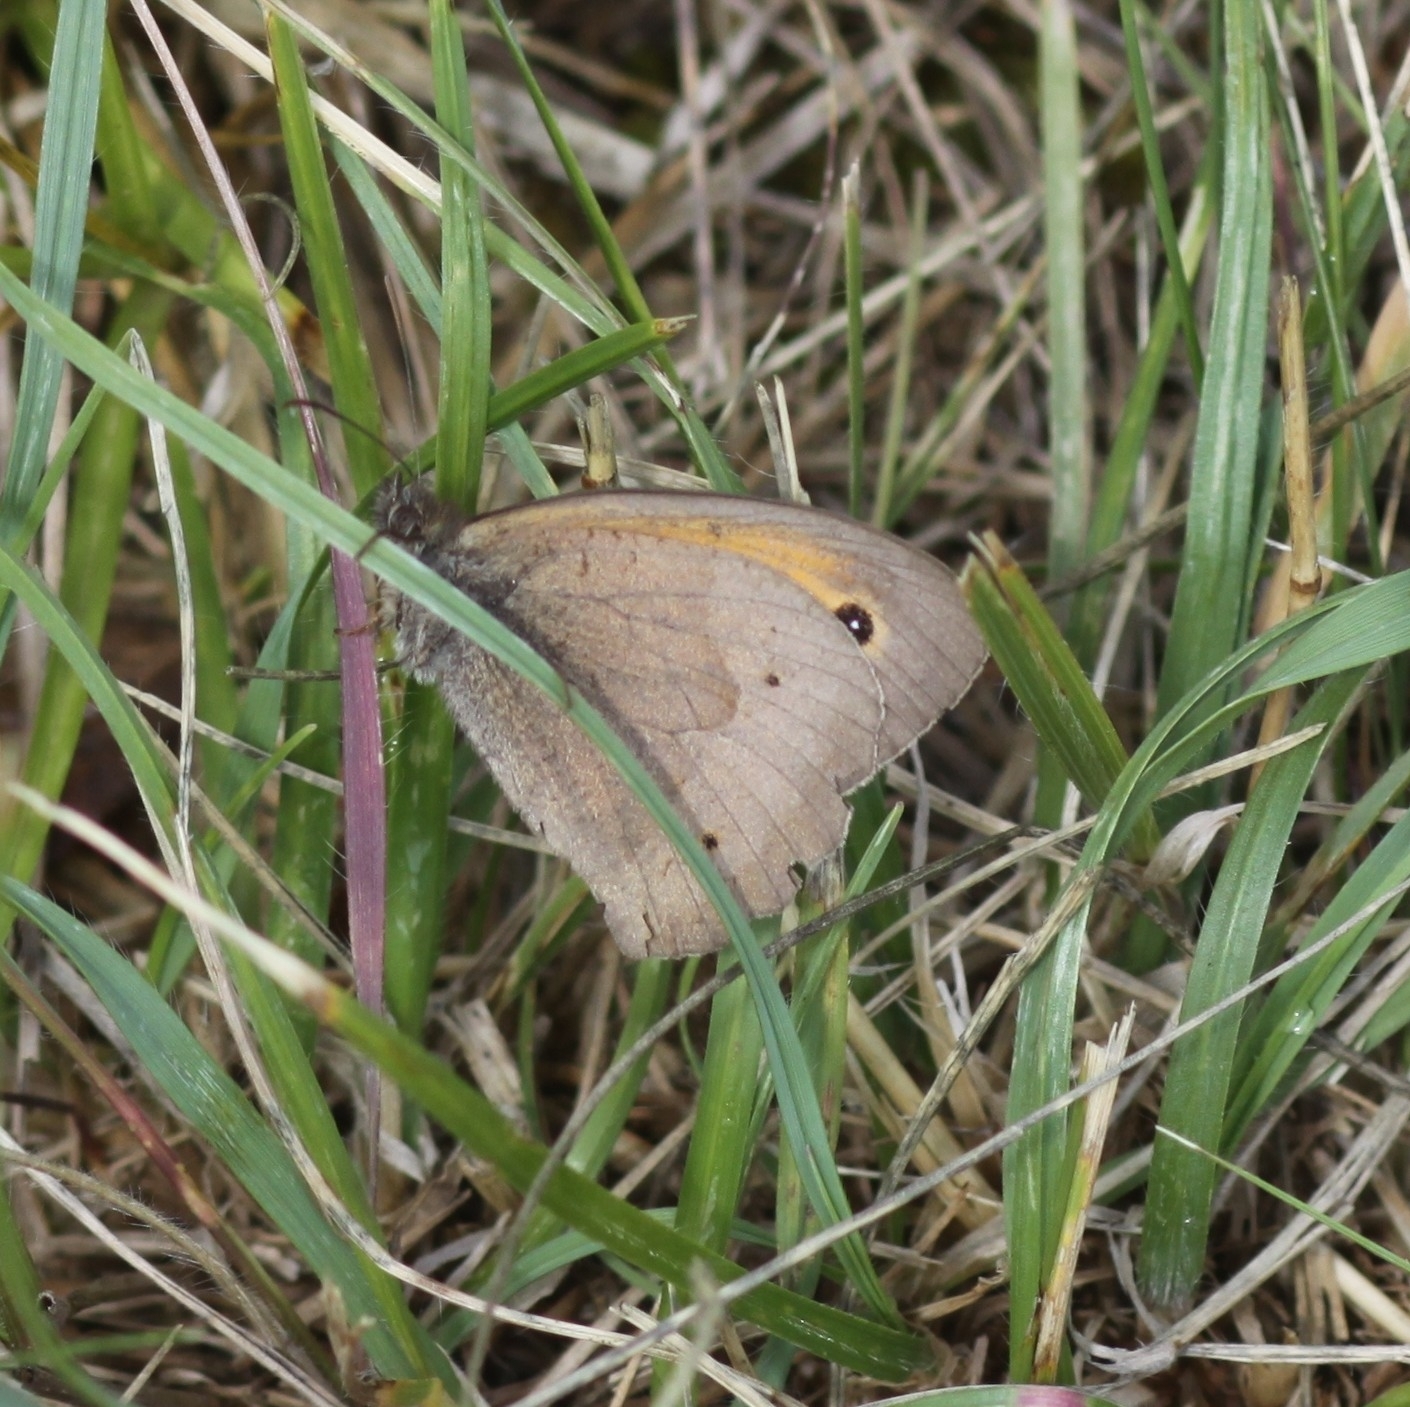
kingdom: Animalia
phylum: Arthropoda
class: Insecta
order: Lepidoptera
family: Nymphalidae
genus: Maniola
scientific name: Maniola jurtina
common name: Meadow brown
